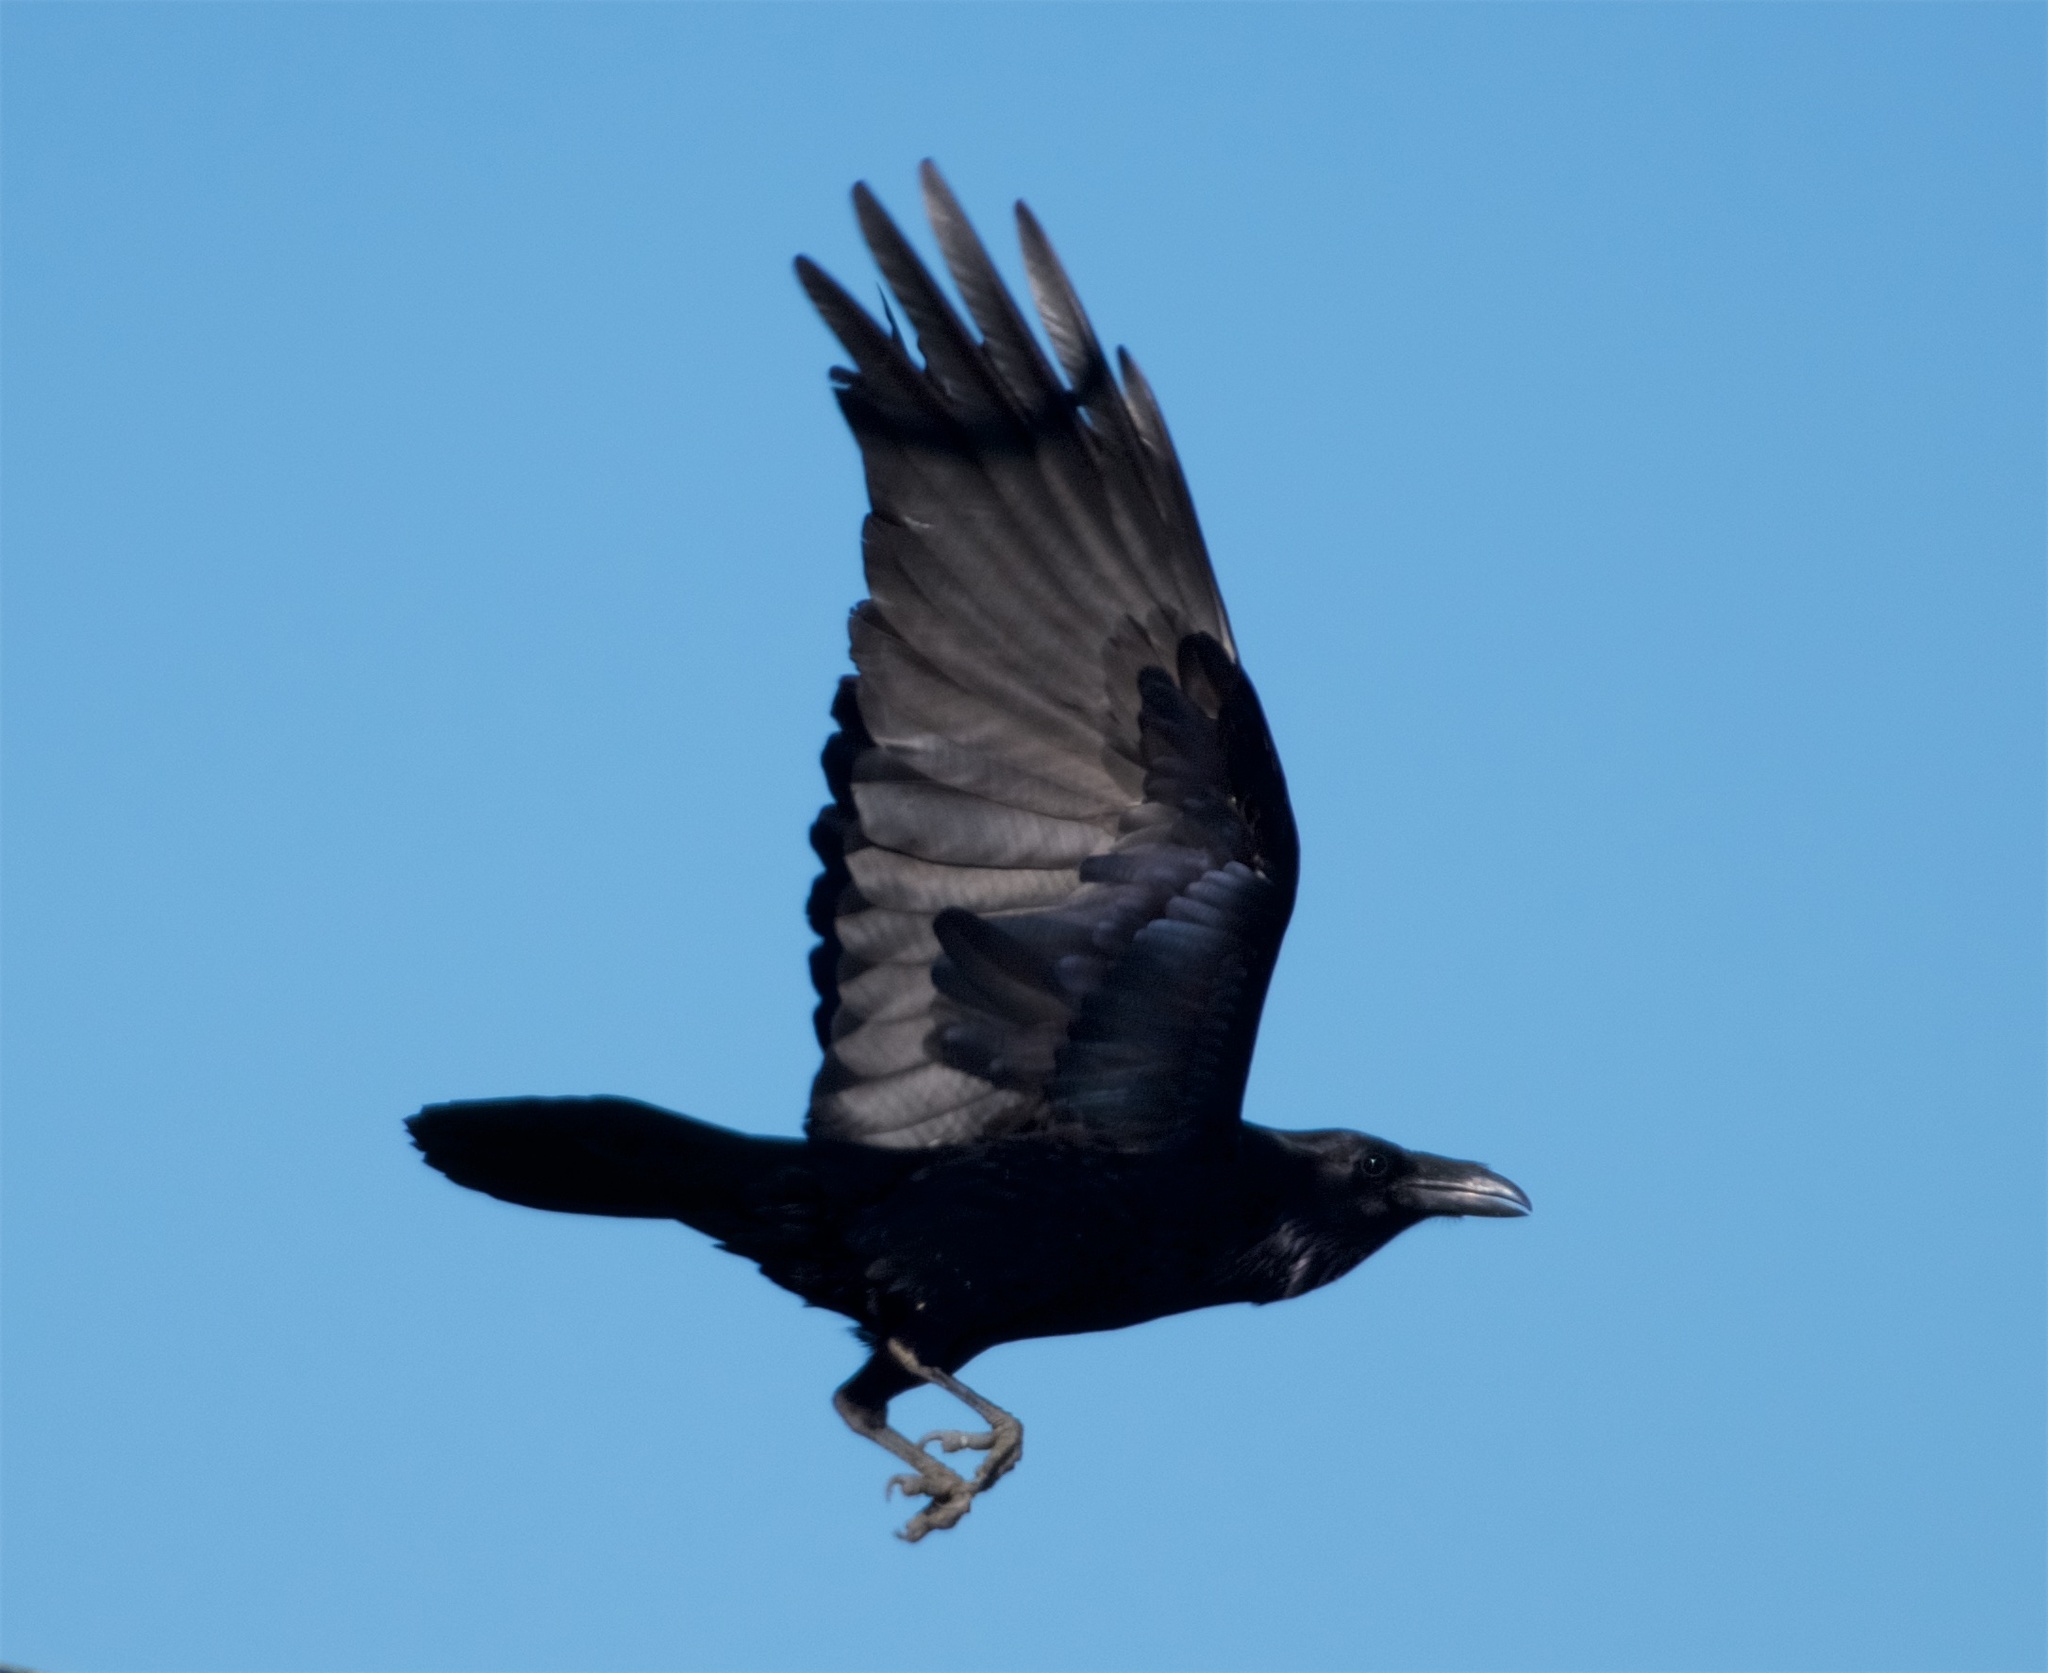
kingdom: Animalia
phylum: Chordata
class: Aves
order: Passeriformes
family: Corvidae
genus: Corvus
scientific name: Corvus corax
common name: Common raven
